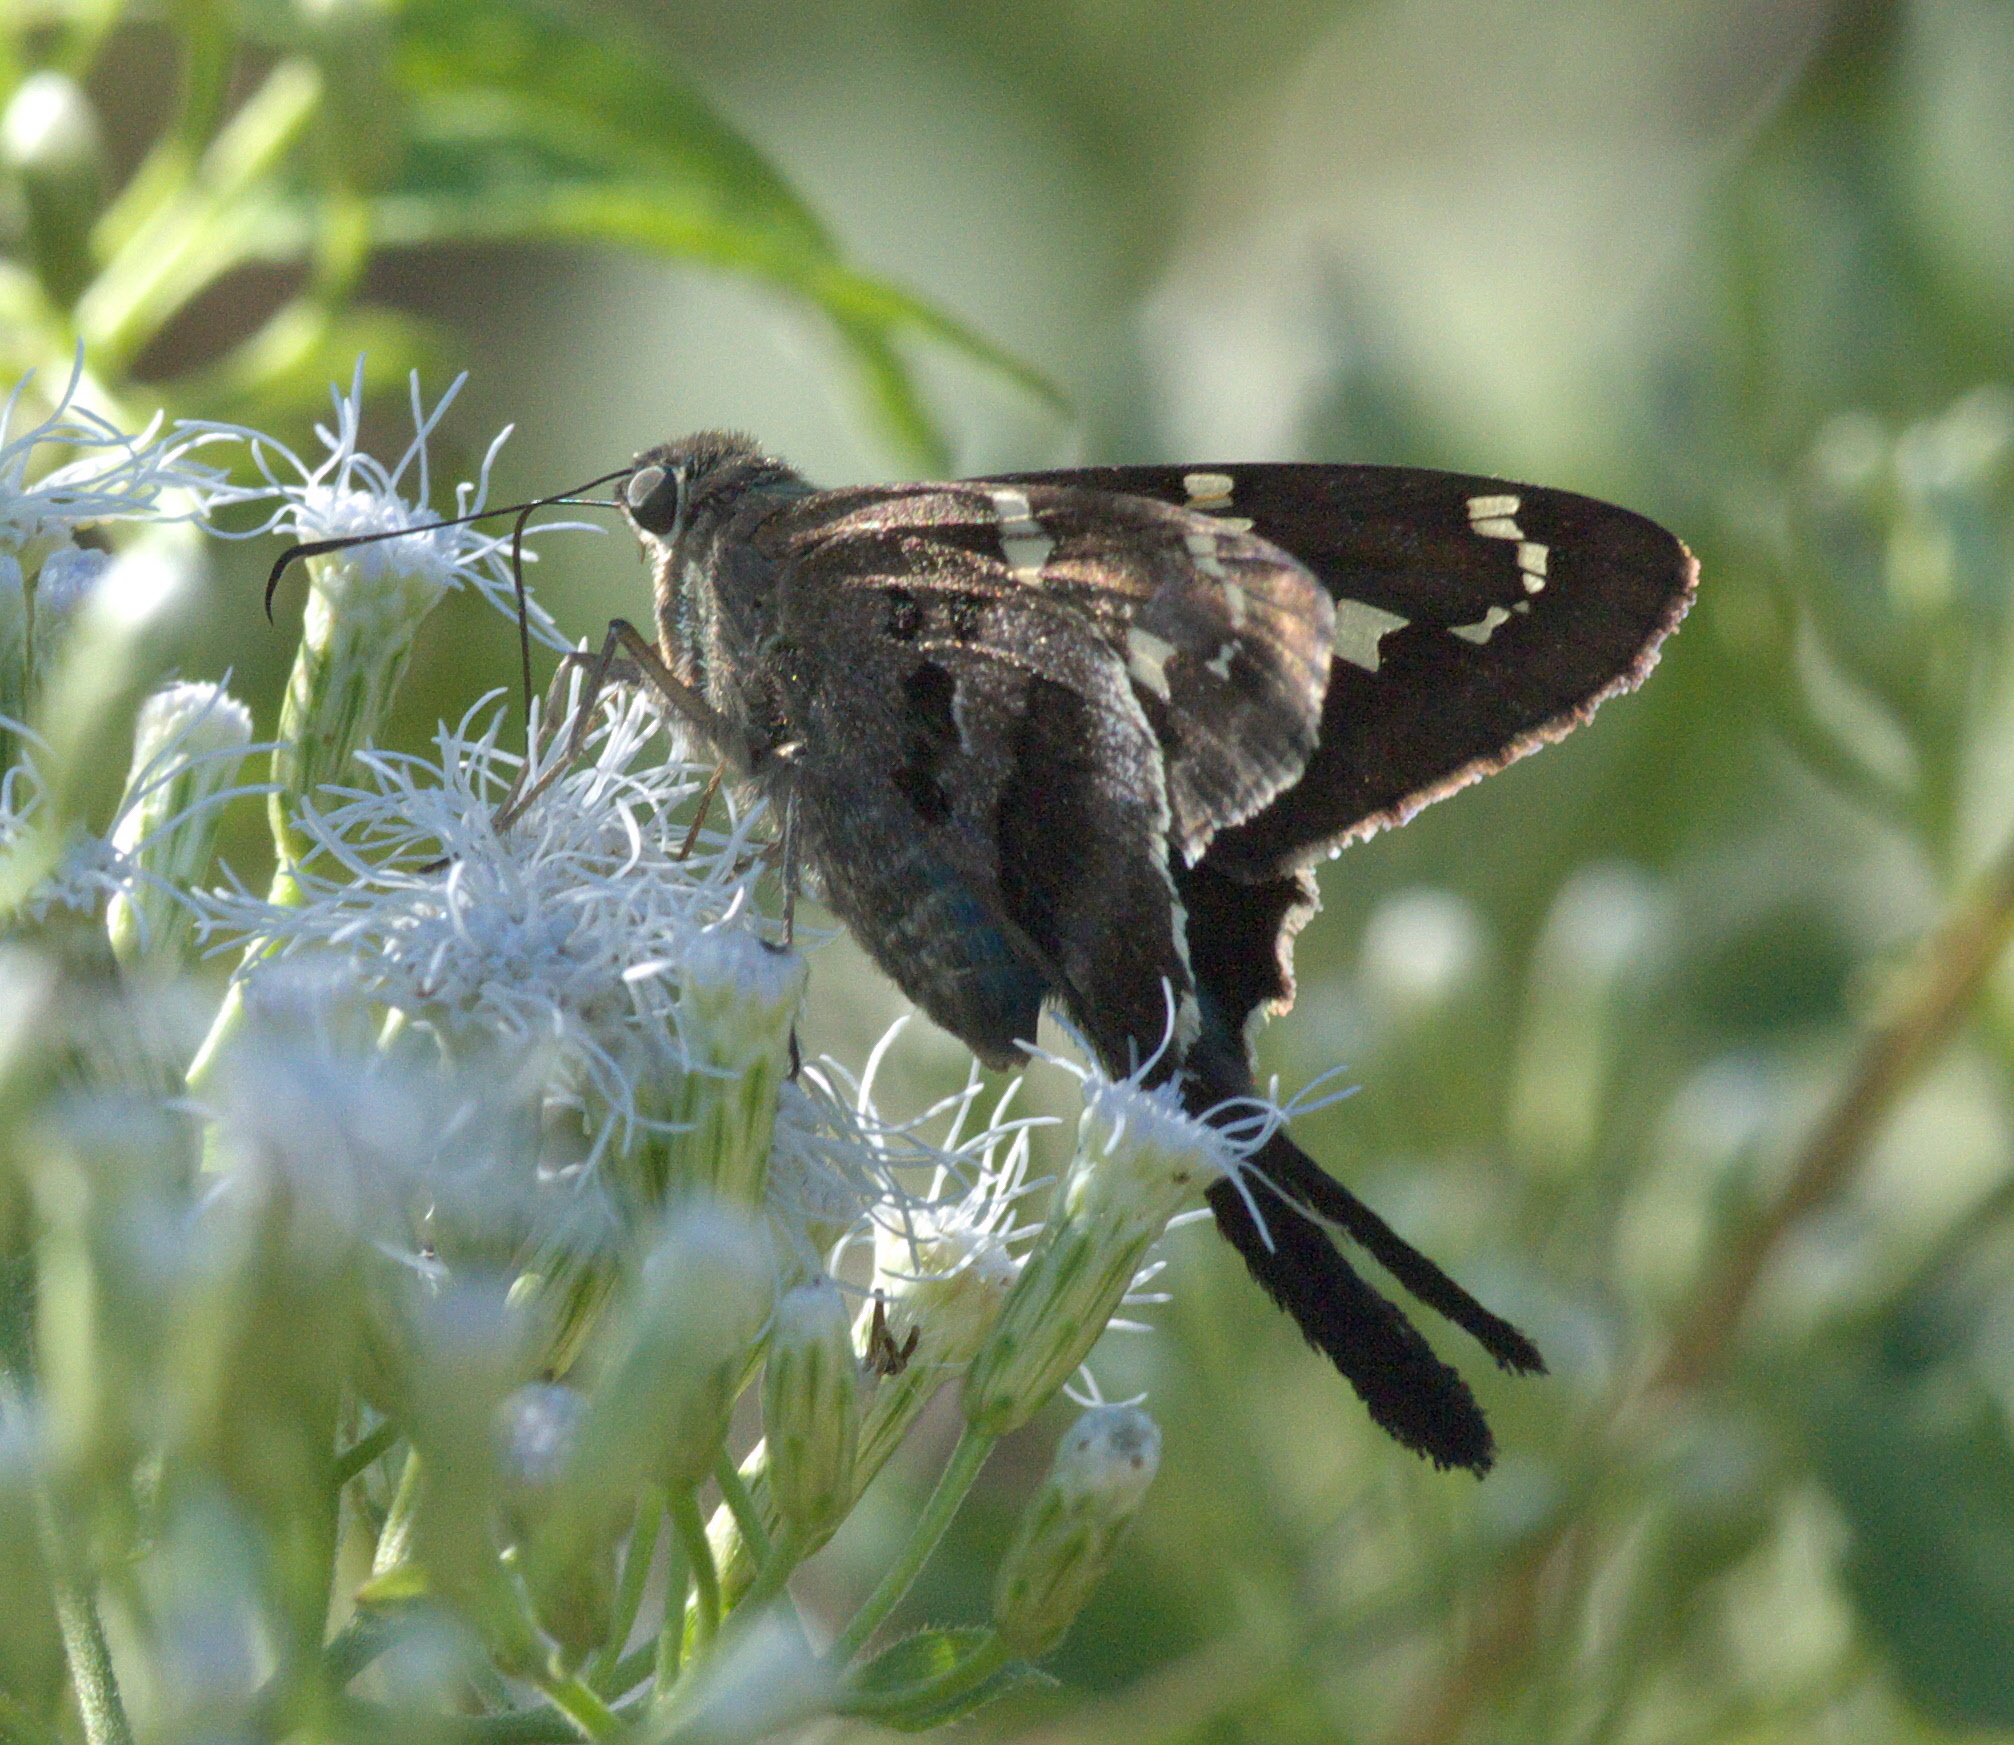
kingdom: Animalia
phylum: Arthropoda
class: Insecta
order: Lepidoptera
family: Hesperiidae
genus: Urbanus
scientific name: Urbanus proteus
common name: Long-tailed skipper
